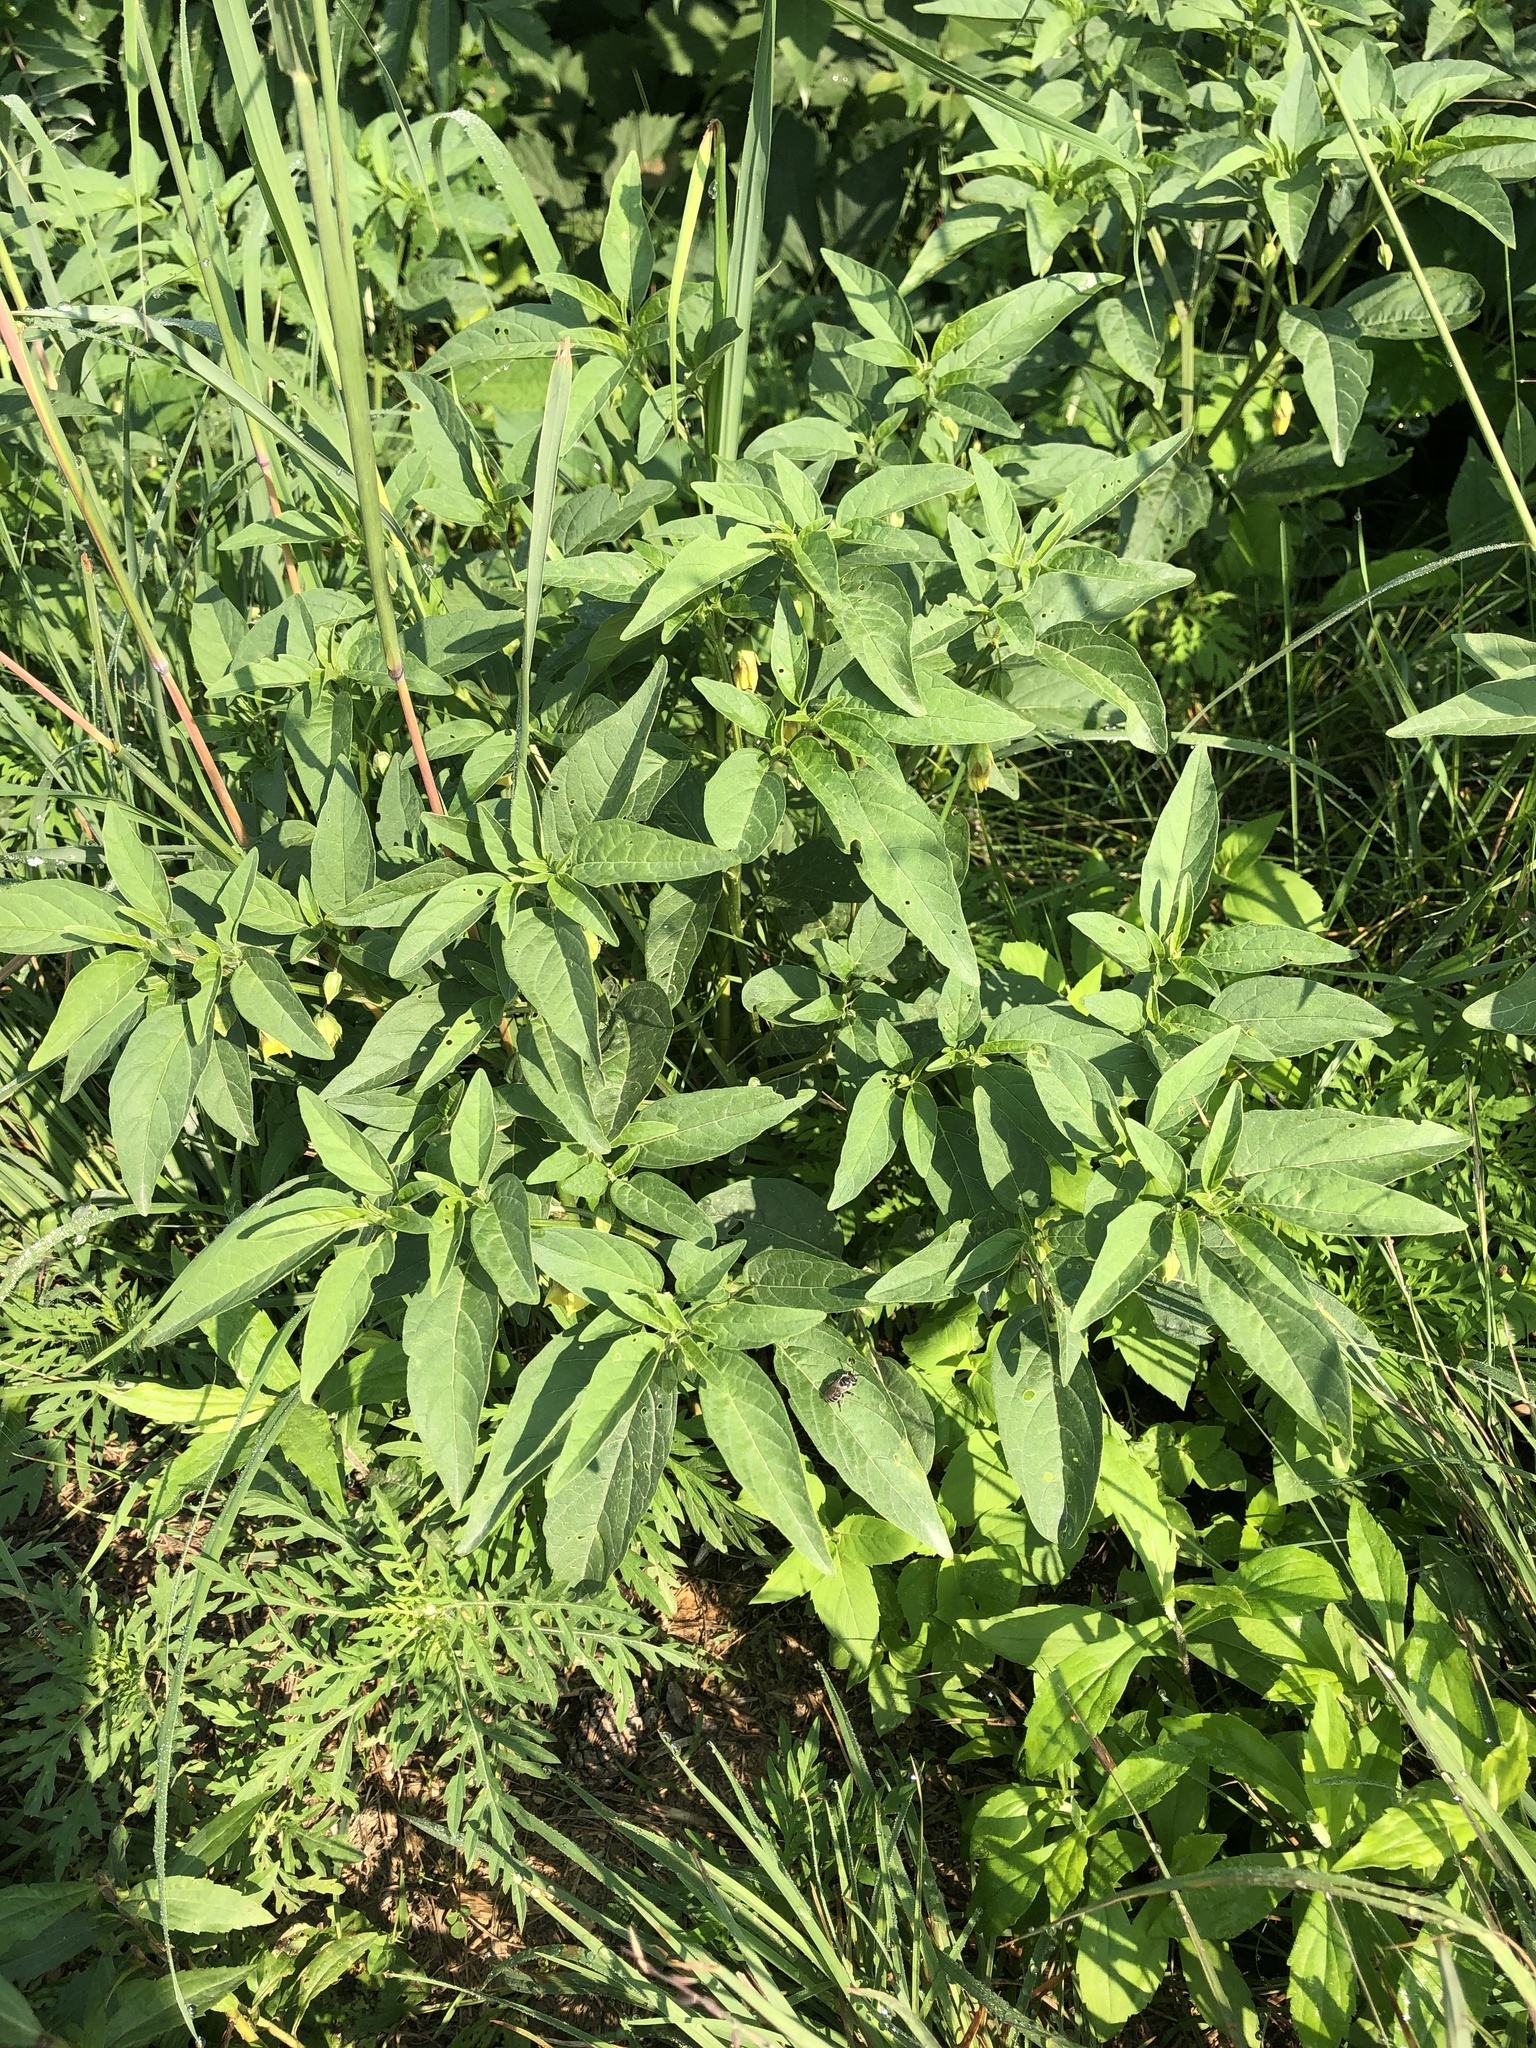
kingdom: Plantae
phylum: Tracheophyta
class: Magnoliopsida
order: Solanales
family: Solanaceae
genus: Physalis
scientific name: Physalis longifolia
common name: Common ground-cherry
